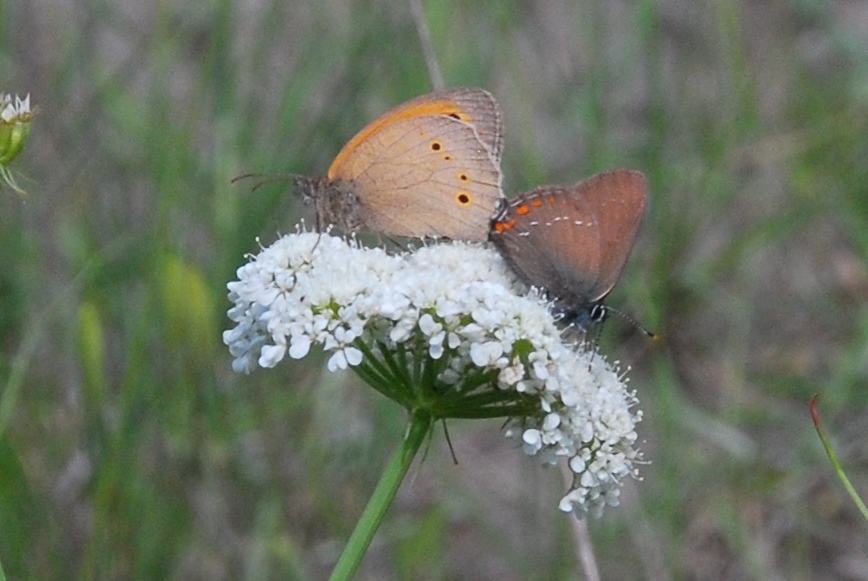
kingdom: Animalia
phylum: Arthropoda
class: Insecta
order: Lepidoptera
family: Lycaenidae
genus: Nordmannia
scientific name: Nordmannia ilicis
